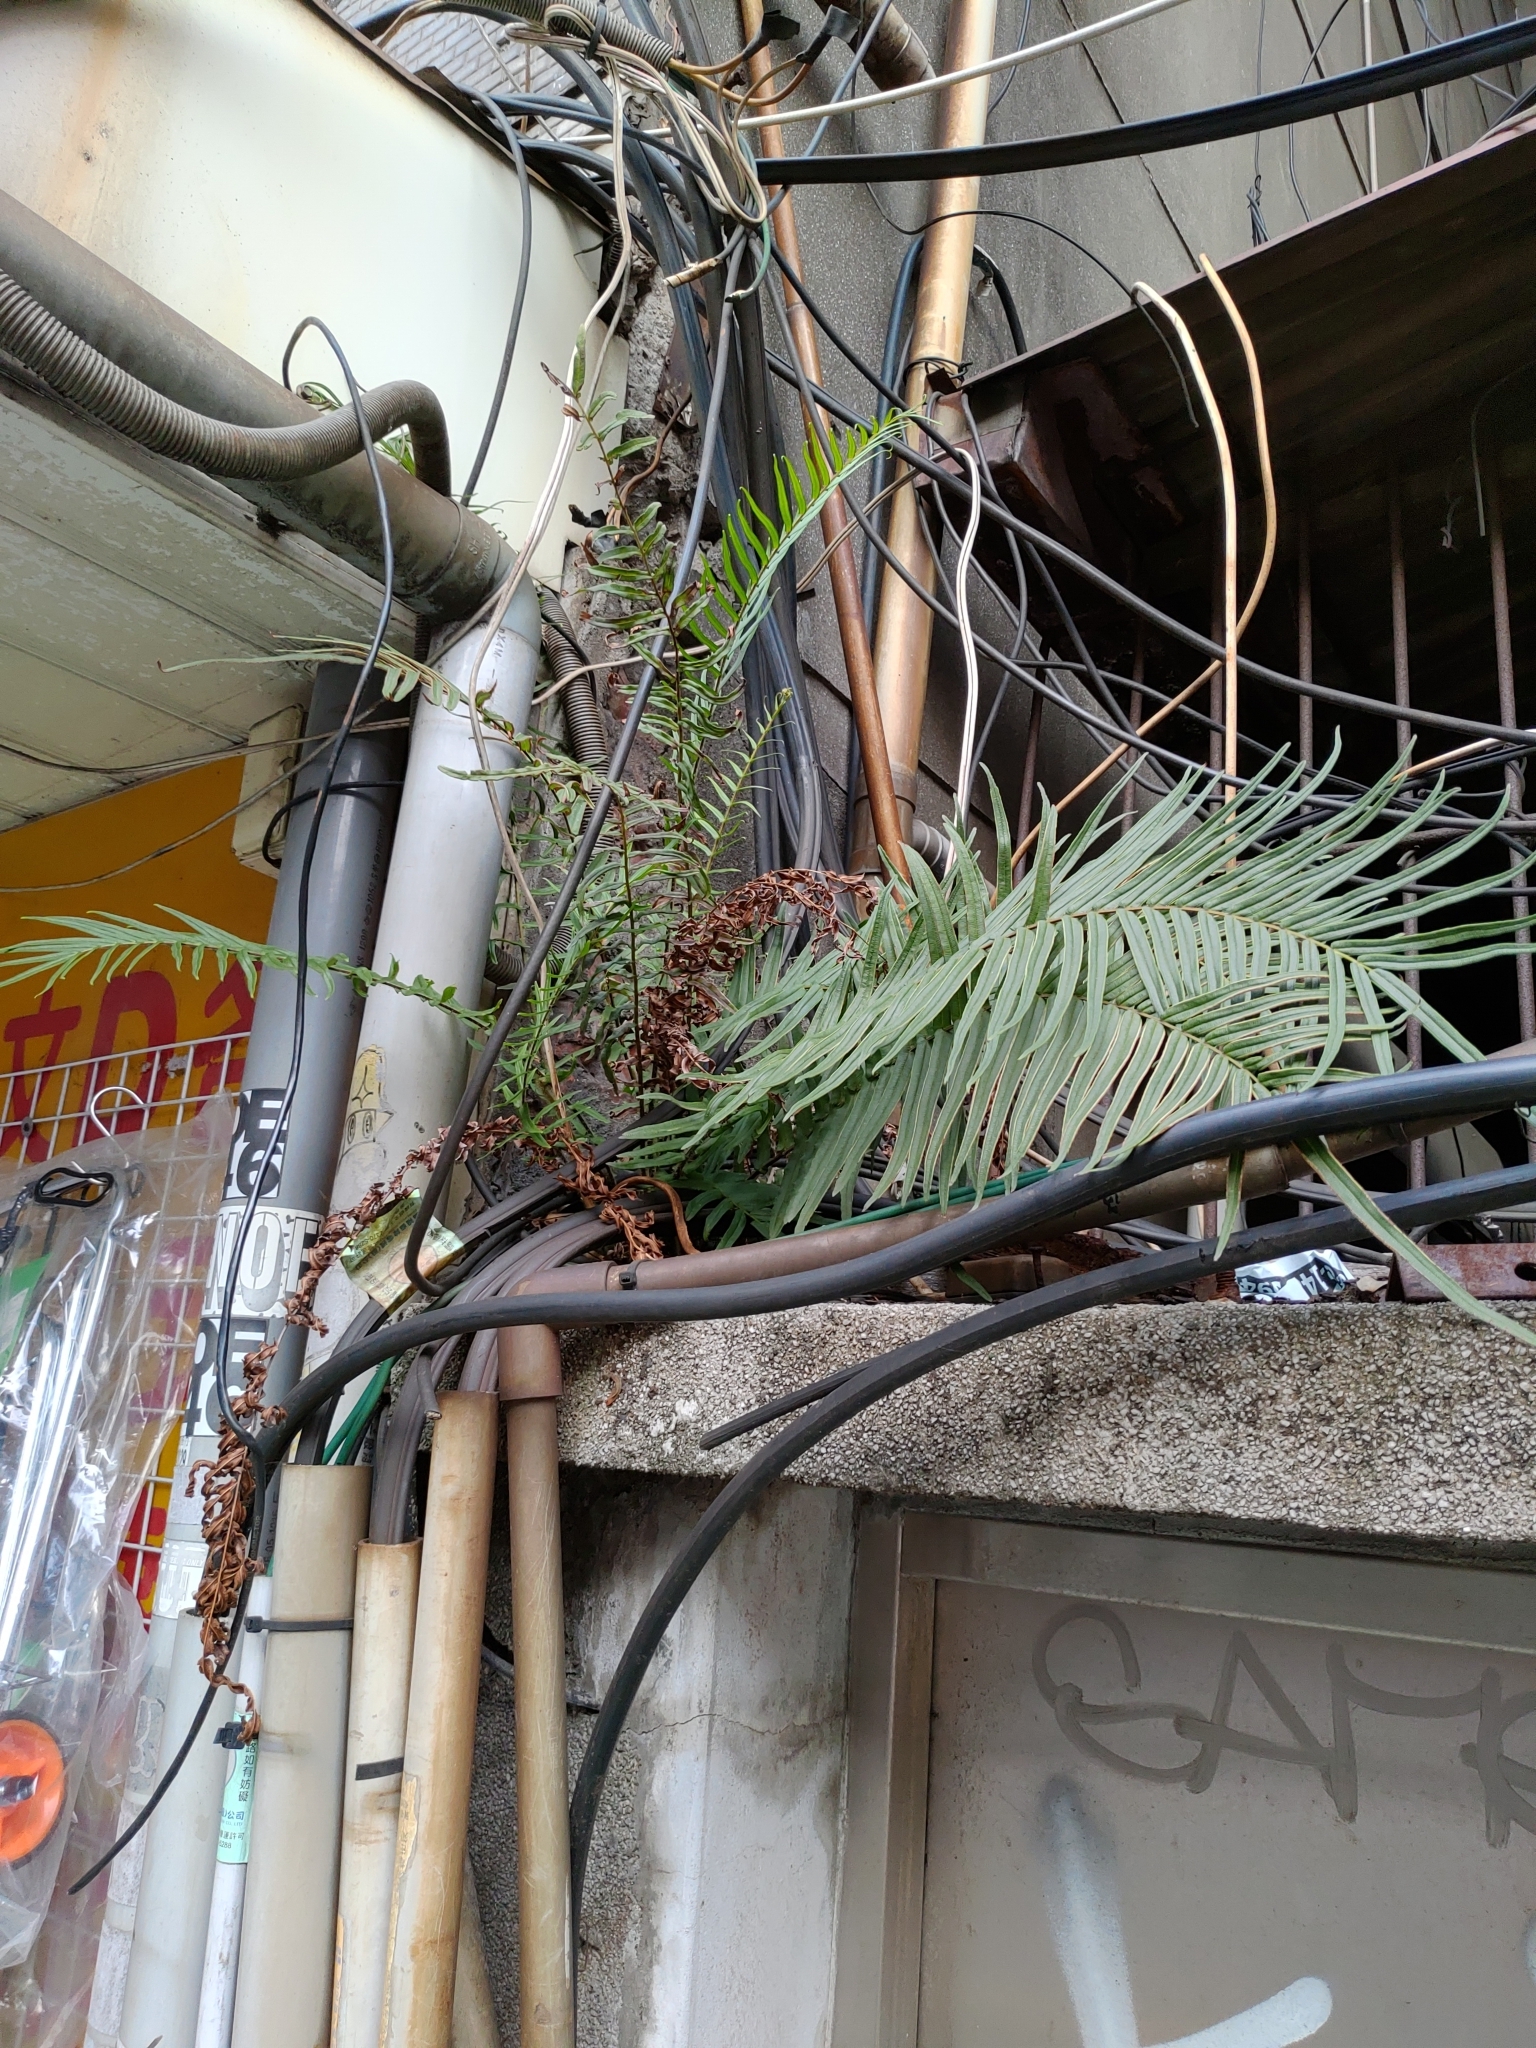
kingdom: Plantae
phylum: Tracheophyta
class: Polypodiopsida
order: Polypodiales
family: Pteridaceae
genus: Pteris
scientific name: Pteris vittata
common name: Ladder brake
